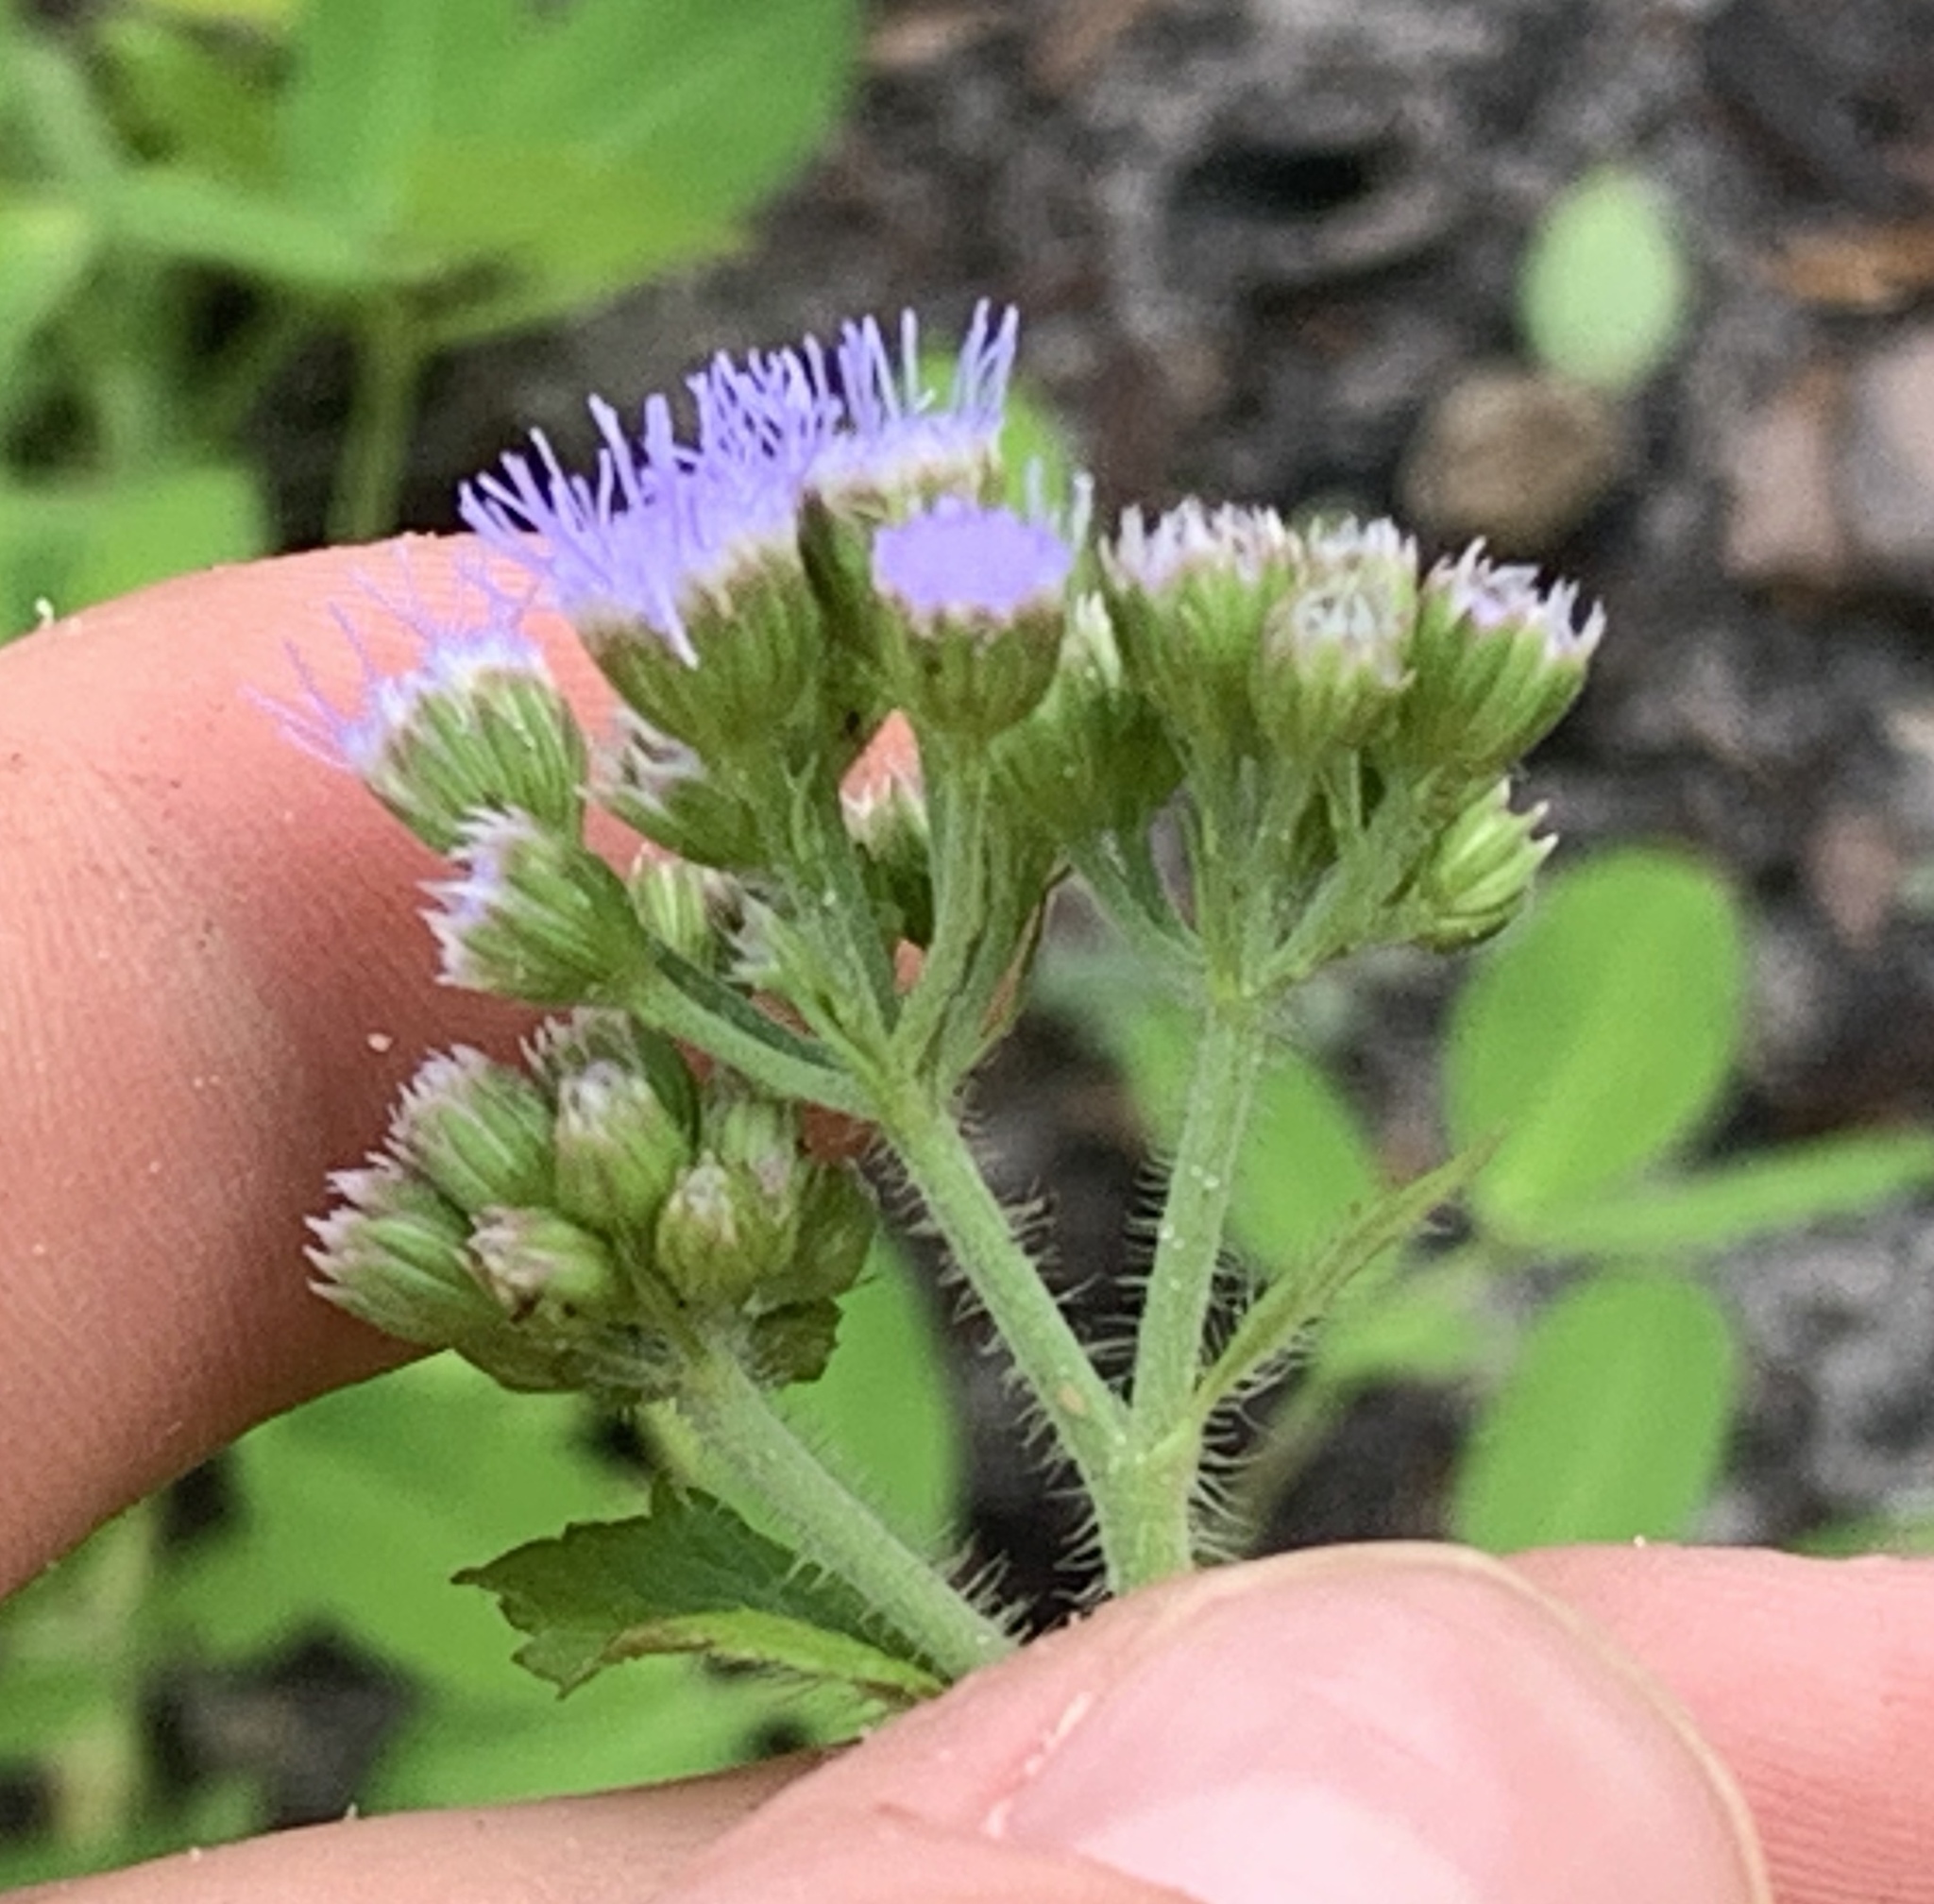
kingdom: Plantae
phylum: Tracheophyta
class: Magnoliopsida
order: Asterales
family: Asteraceae
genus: Conoclinium
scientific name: Conoclinium coelestinum
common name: Blue mistflower
